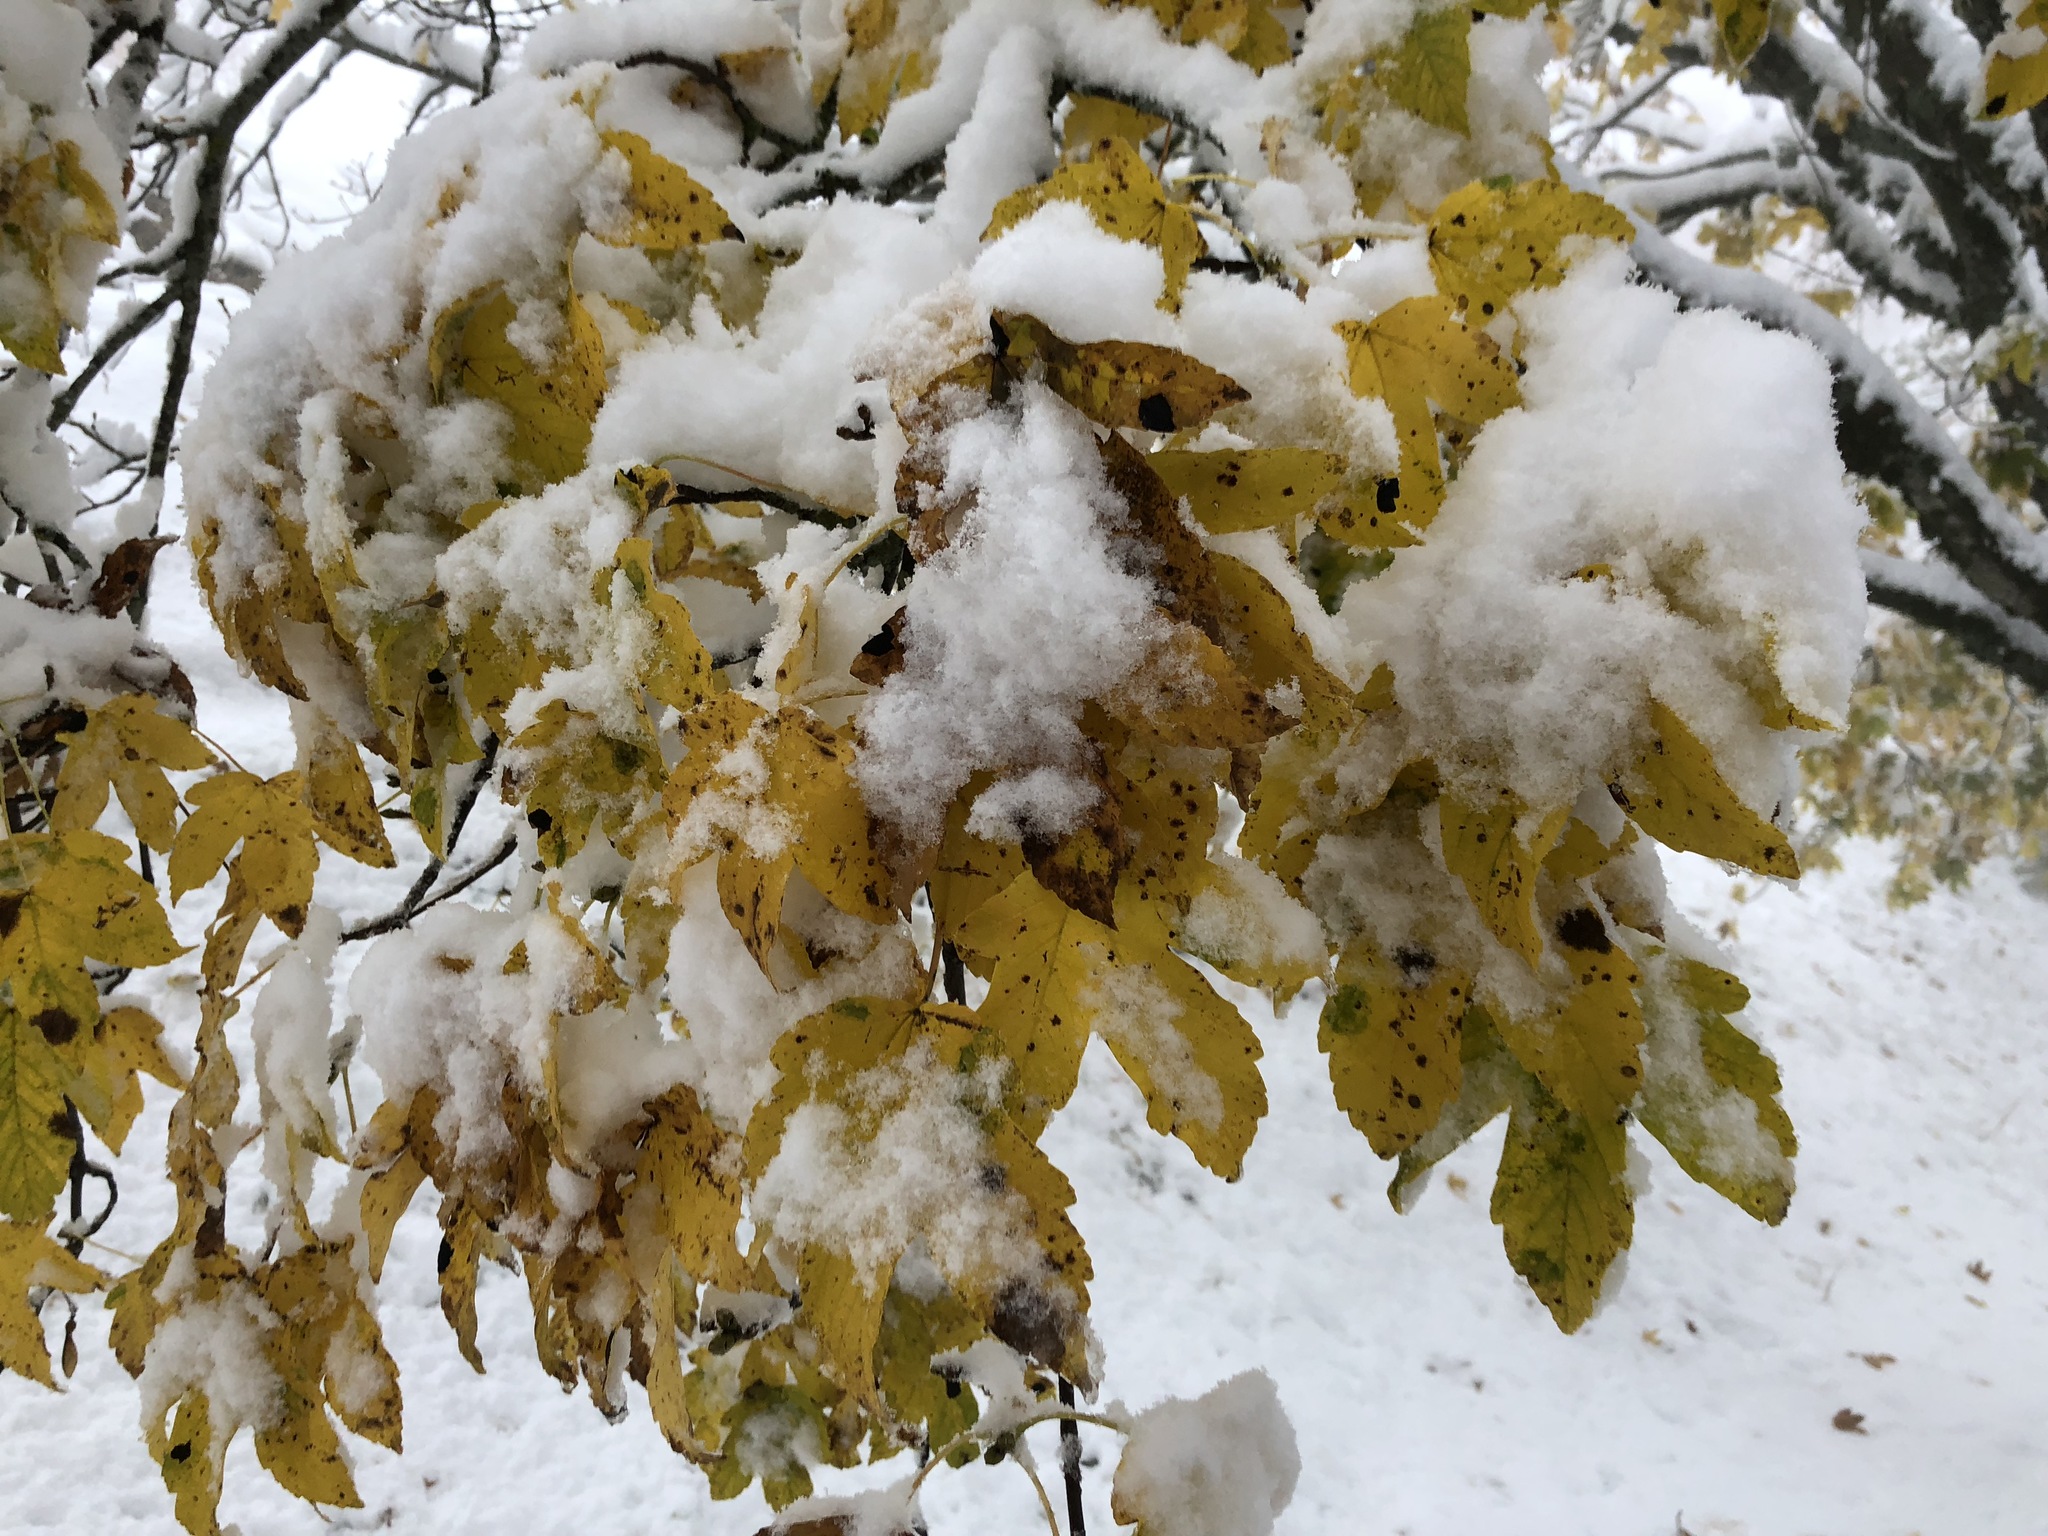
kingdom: Plantae
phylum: Tracheophyta
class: Magnoliopsida
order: Sapindales
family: Sapindaceae
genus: Acer
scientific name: Acer pseudoplatanus
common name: Sycamore
